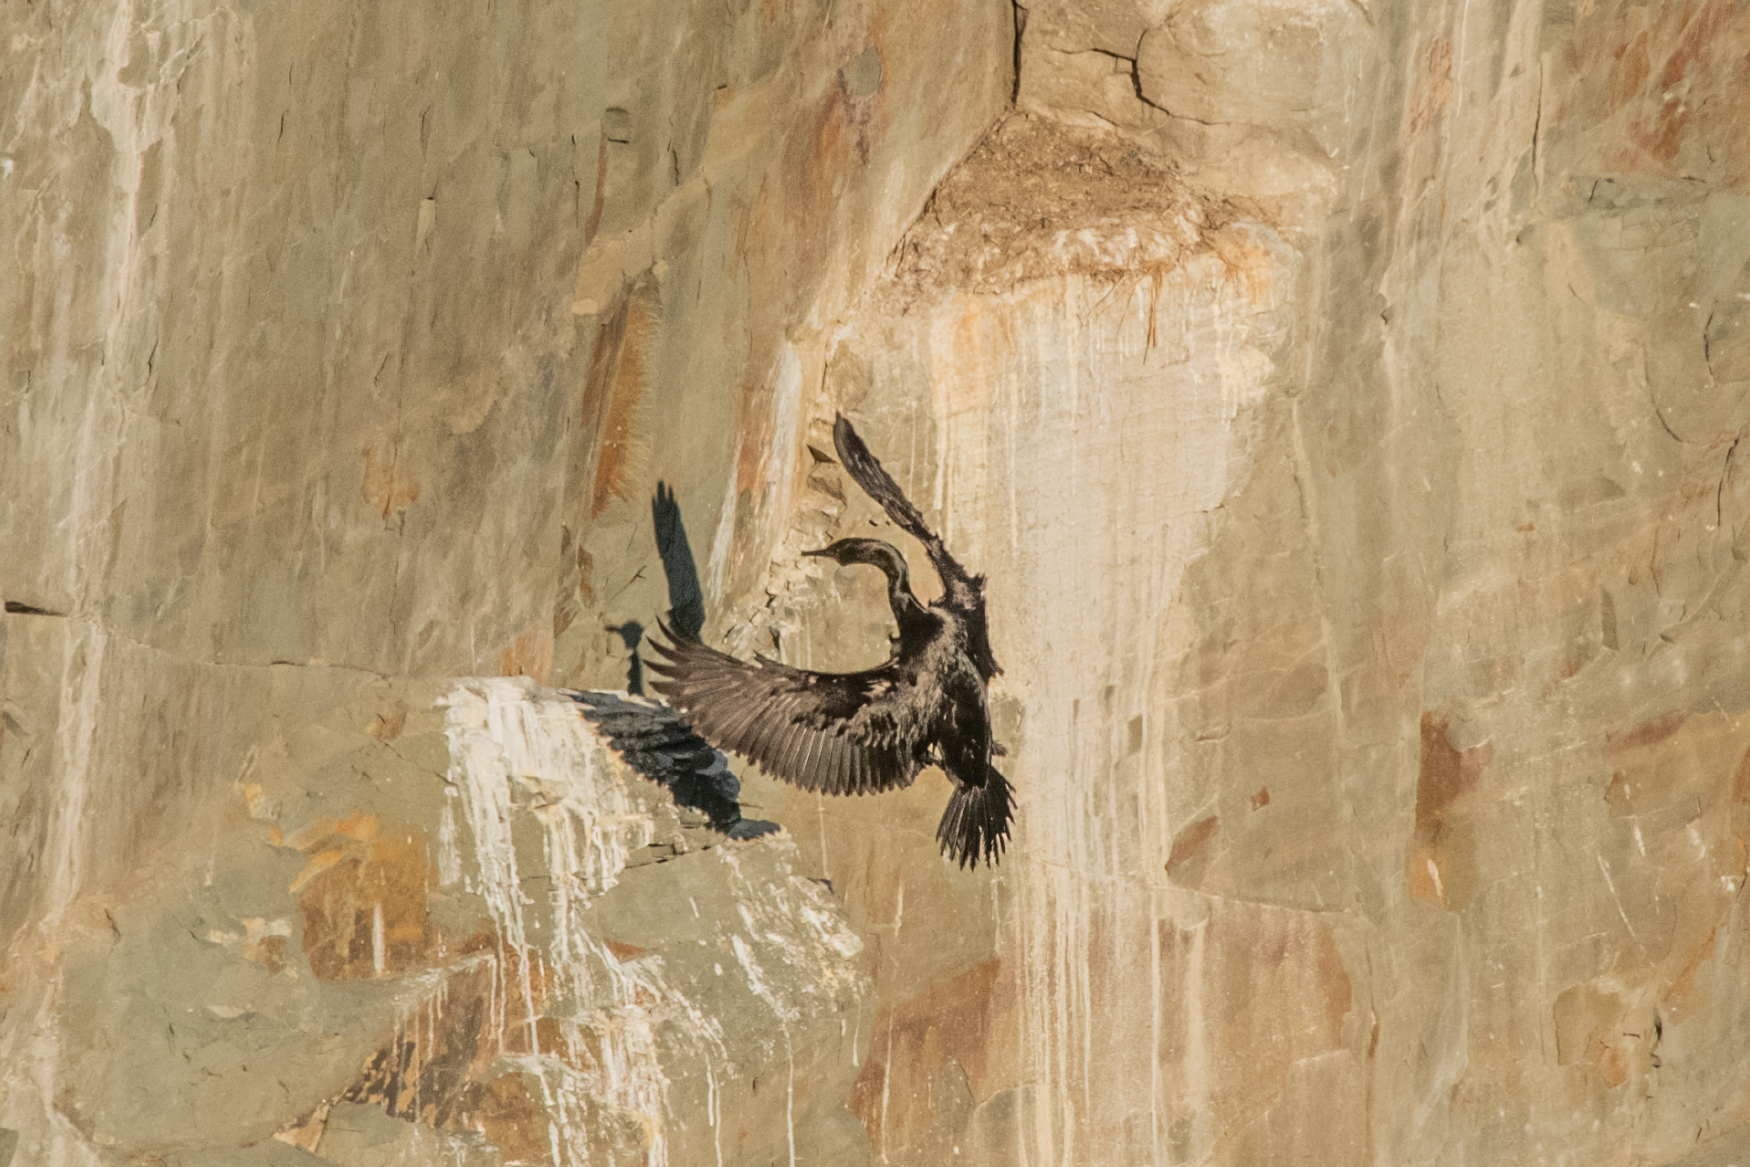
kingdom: Animalia
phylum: Chordata
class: Aves
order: Suliformes
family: Phalacrocoracidae
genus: Phalacrocorax
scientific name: Phalacrocorax pelagicus
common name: Pelagic cormorant
